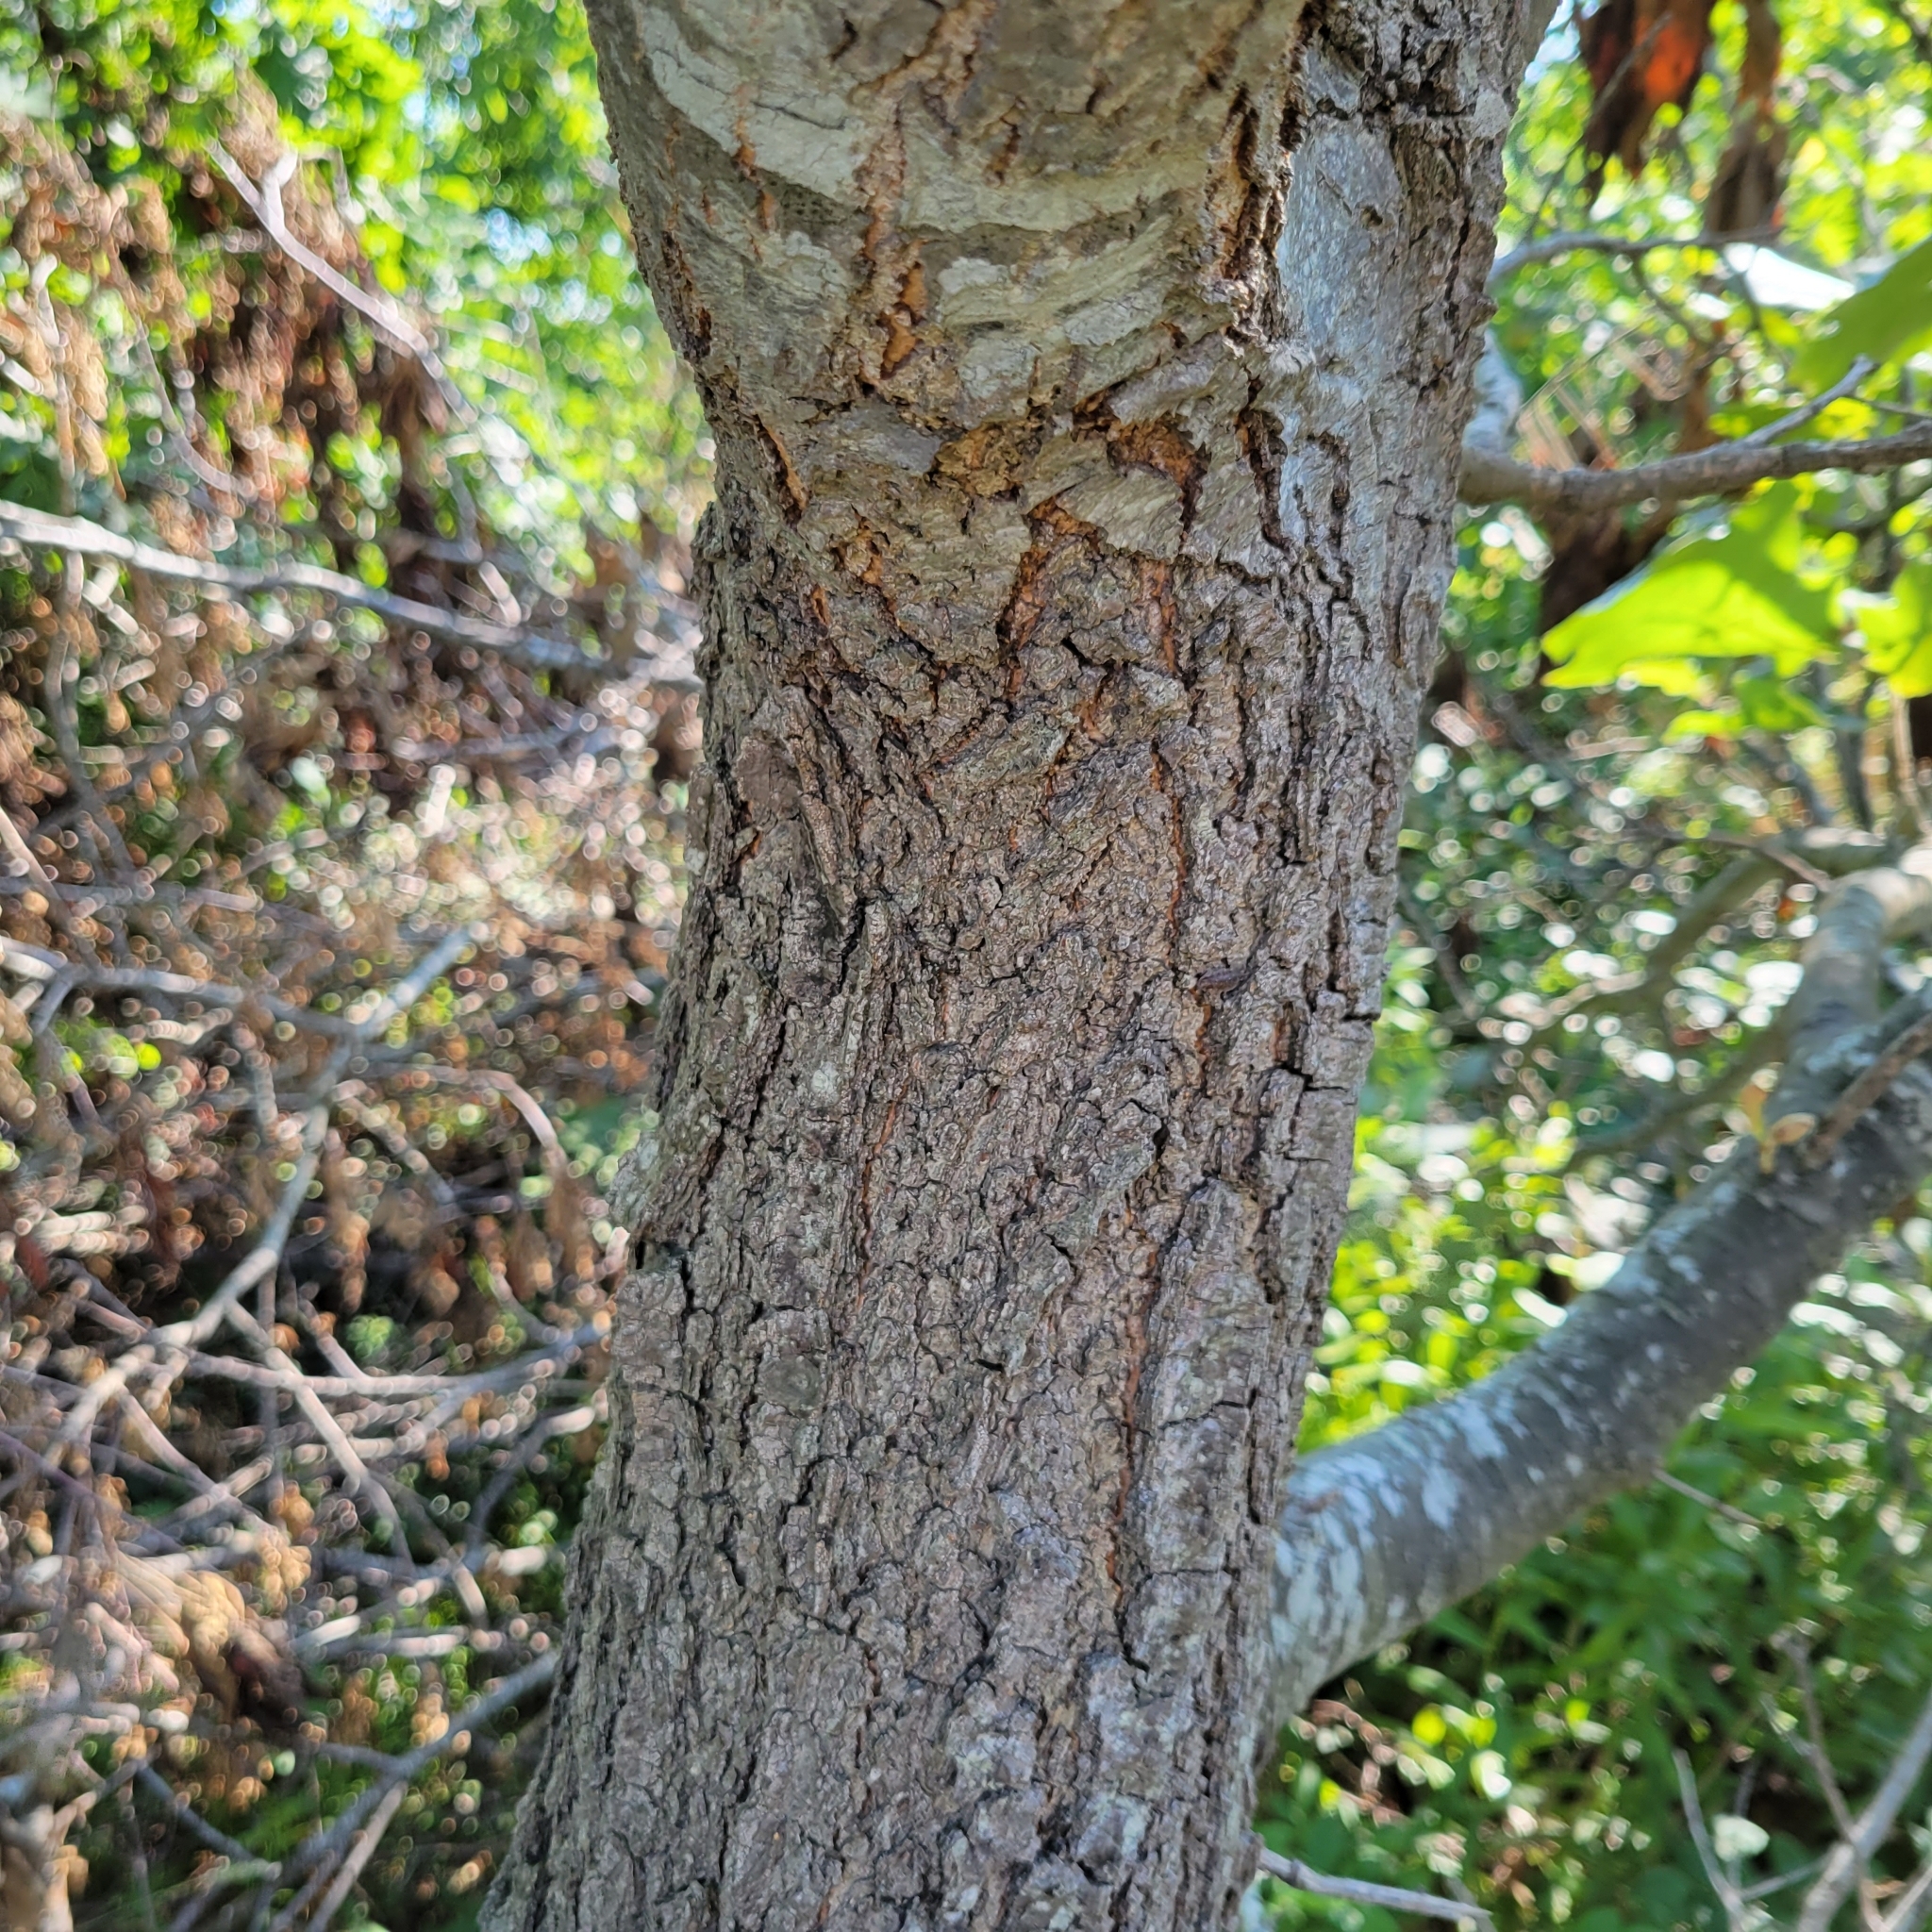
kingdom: Plantae
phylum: Tracheophyta
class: Magnoliopsida
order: Fagales
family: Fagaceae
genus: Quercus
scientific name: Quercus velutina
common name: Black oak
